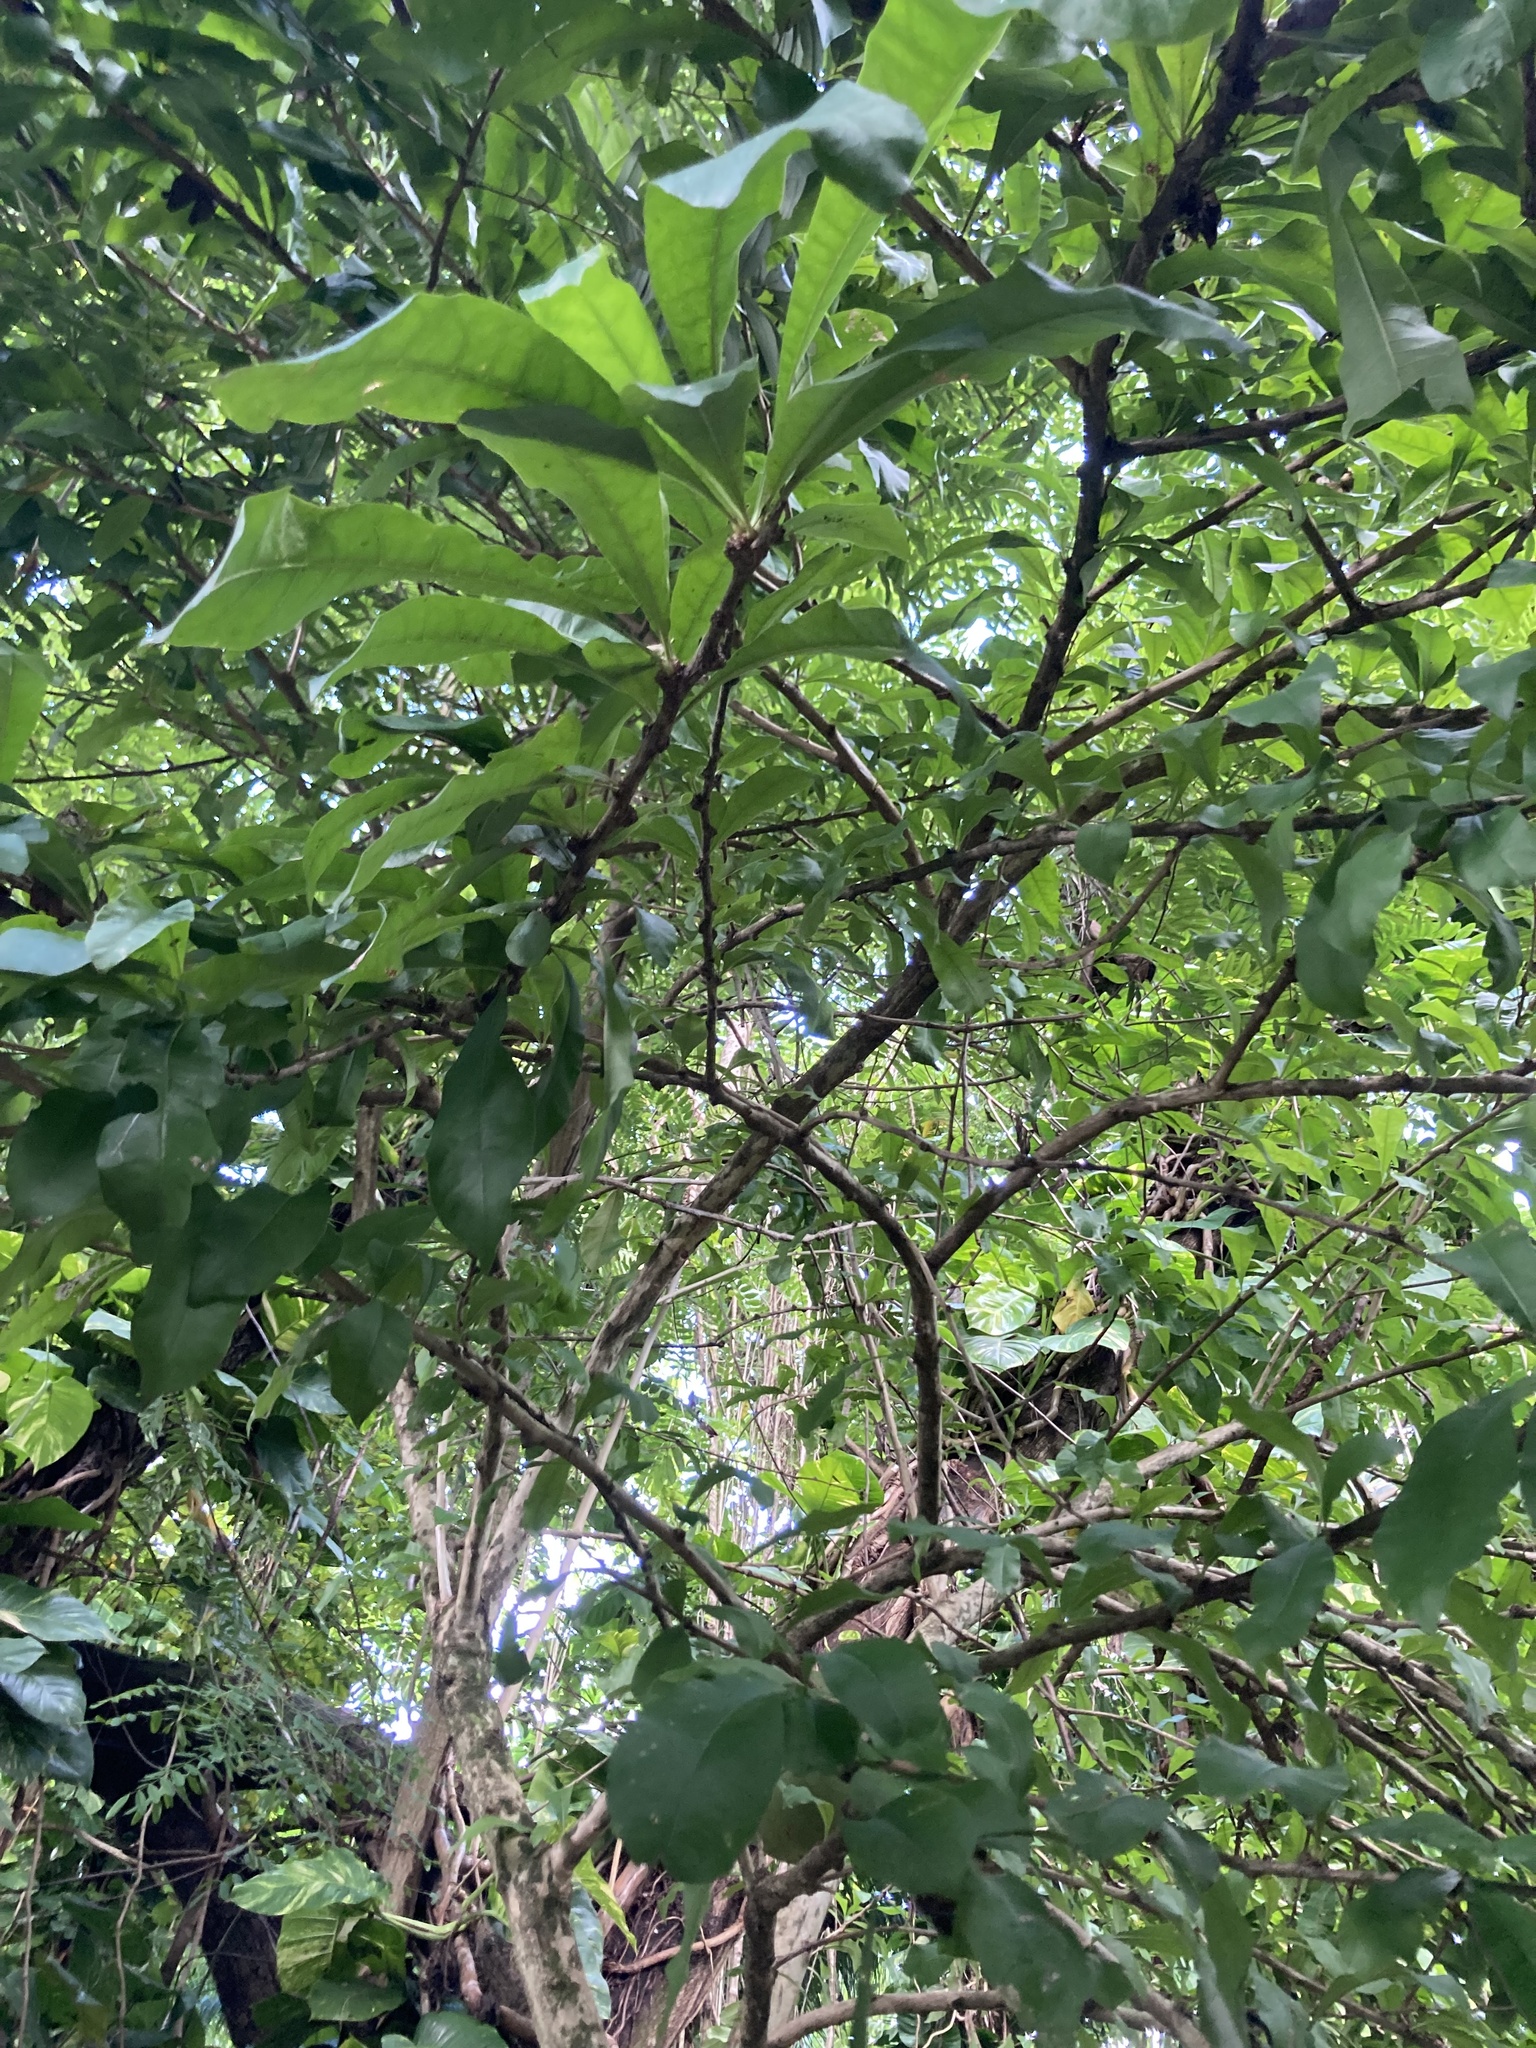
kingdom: Plantae
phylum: Tracheophyta
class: Magnoliopsida
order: Lamiales
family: Bignoniaceae
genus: Crescentia
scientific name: Crescentia cujete
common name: Calabash
